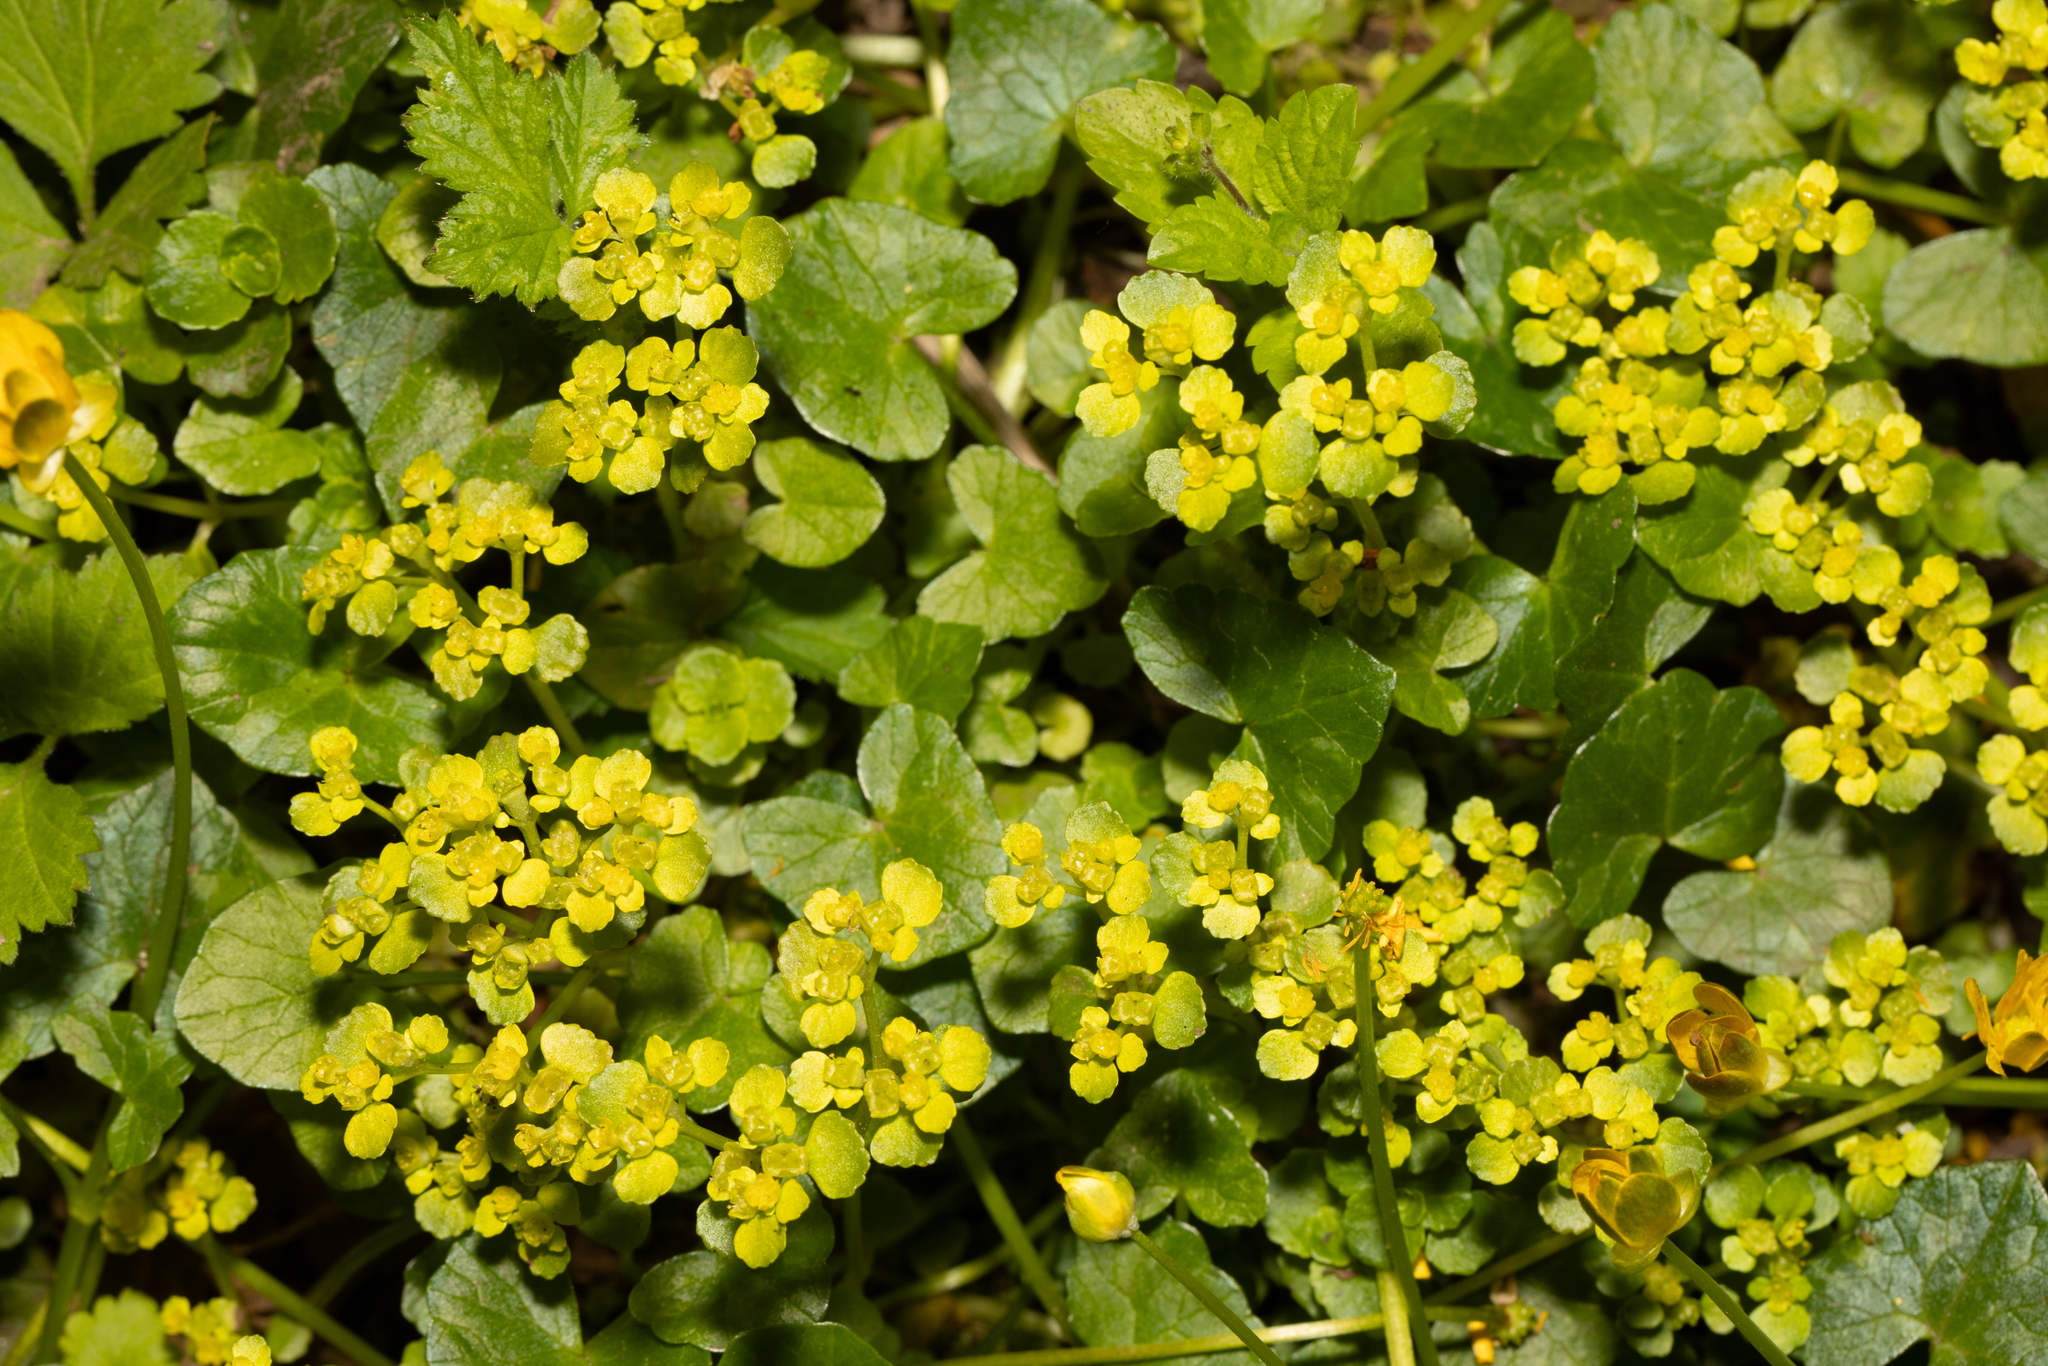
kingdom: Plantae
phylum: Tracheophyta
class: Magnoliopsida
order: Saxifragales
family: Saxifragaceae
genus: Chrysosplenium
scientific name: Chrysosplenium oppositifolium
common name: Opposite-leaved golden-saxifrage
